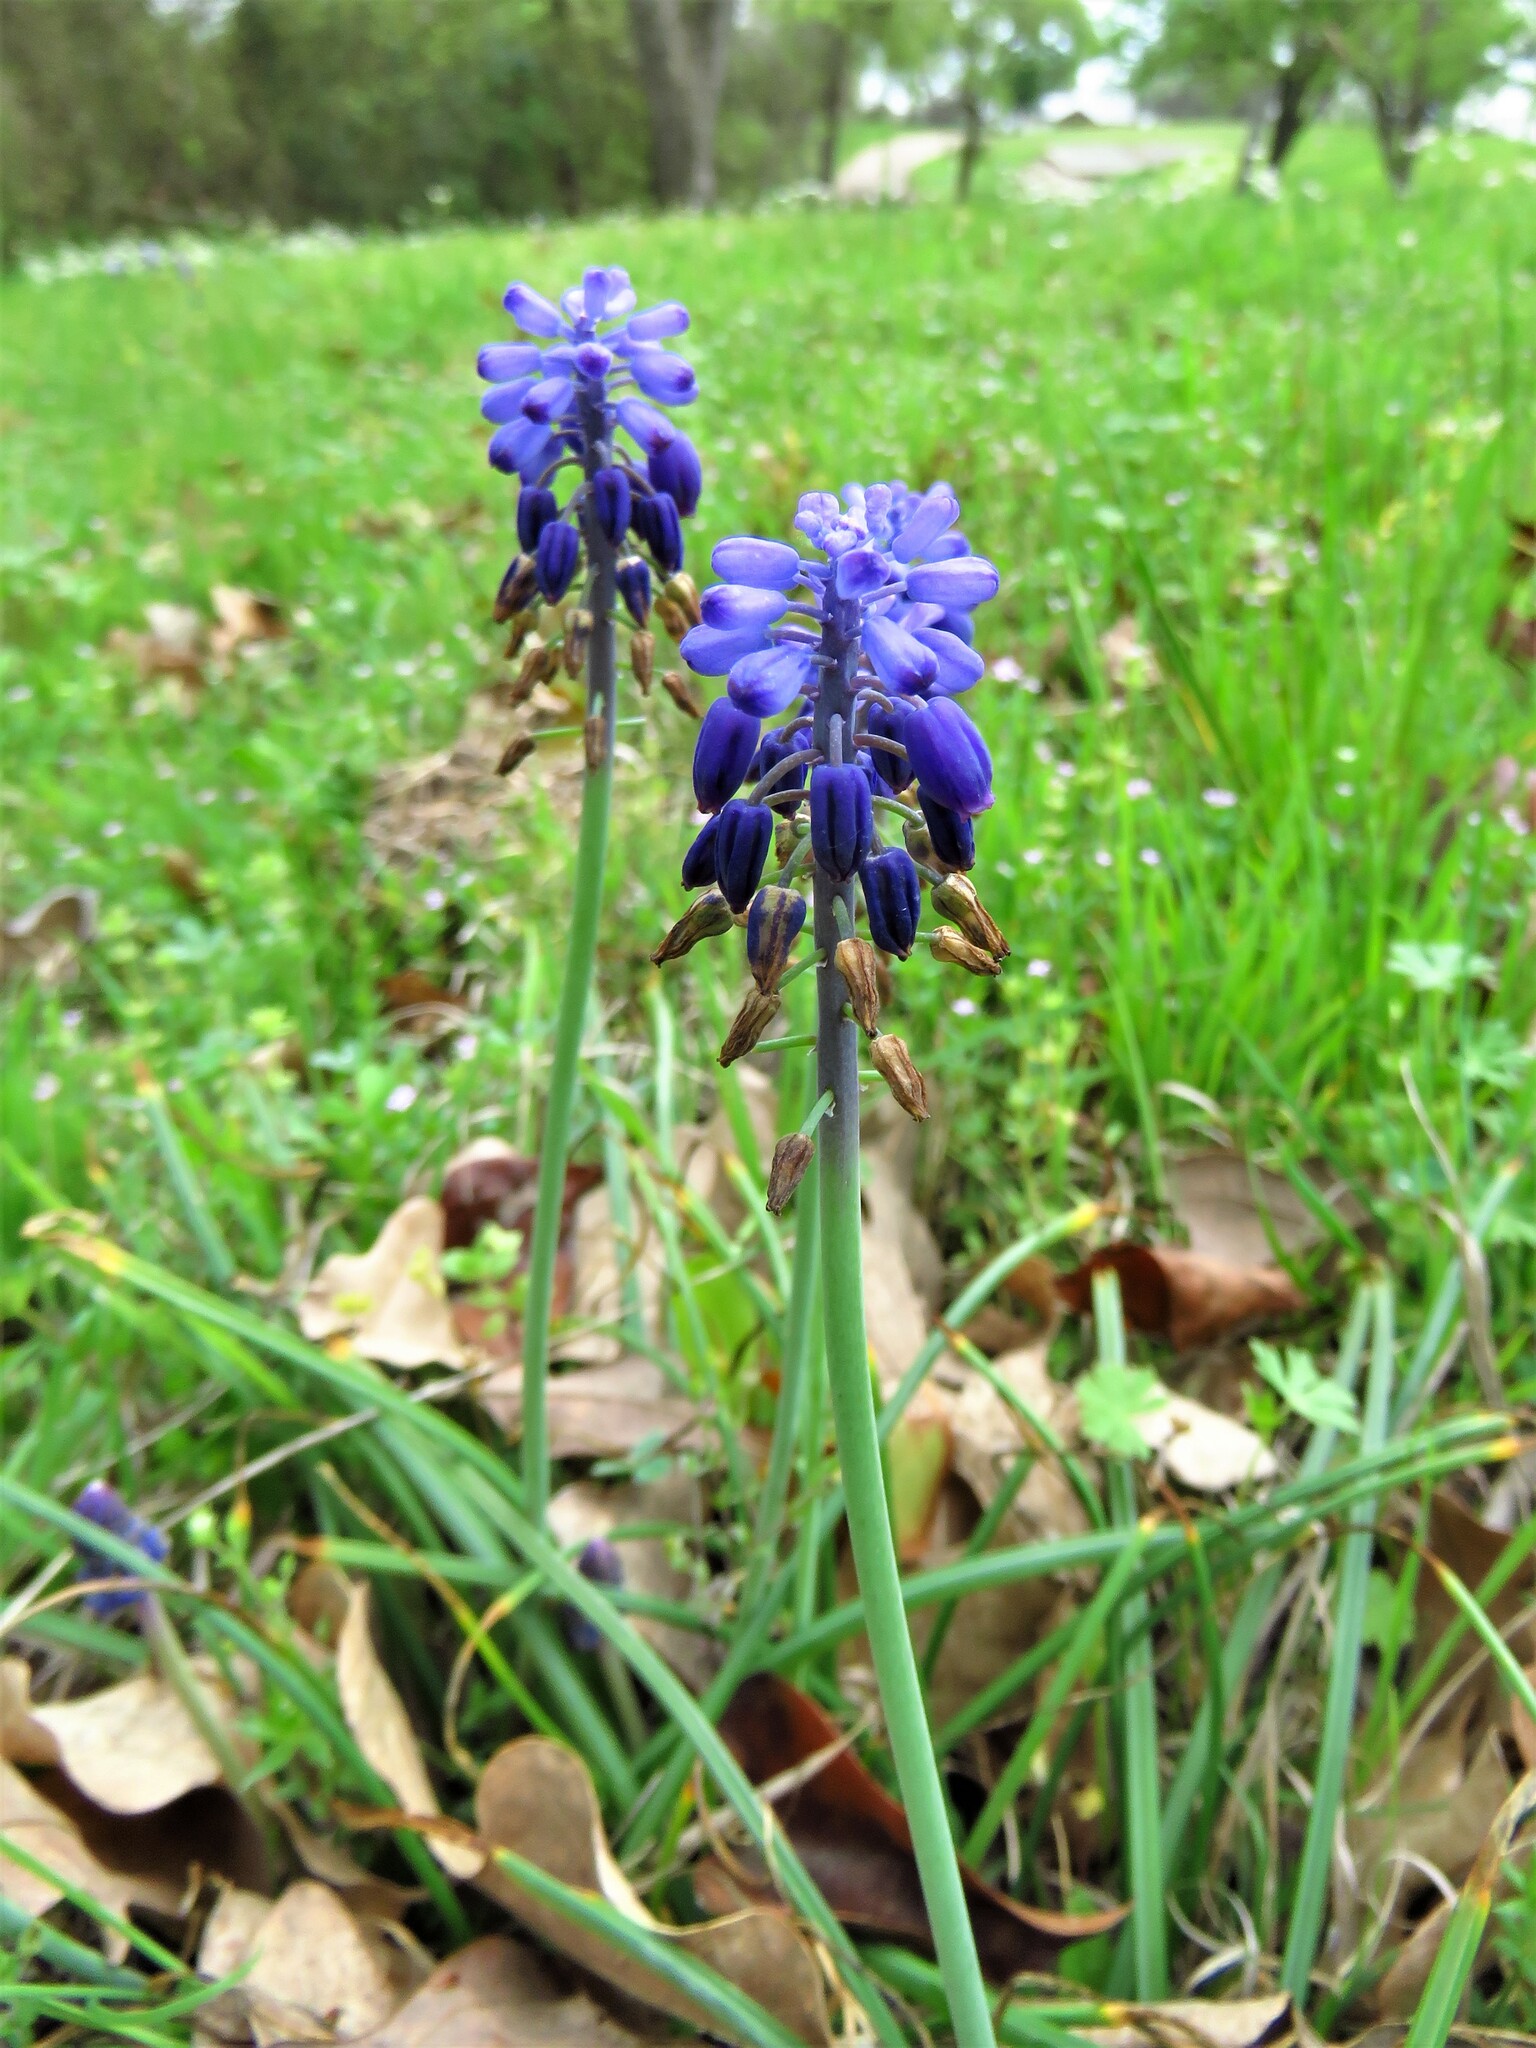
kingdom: Plantae
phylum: Tracheophyta
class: Liliopsida
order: Asparagales
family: Asparagaceae
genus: Muscari
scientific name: Muscari neglectum
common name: Grape-hyacinth
